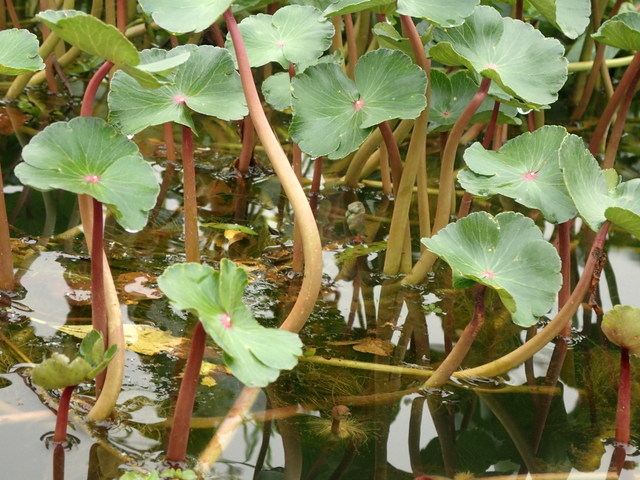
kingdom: Plantae
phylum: Tracheophyta
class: Magnoliopsida
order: Apiales
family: Araliaceae
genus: Hydrocotyle
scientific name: Hydrocotyle ranunculoides
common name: Floating pennywort
